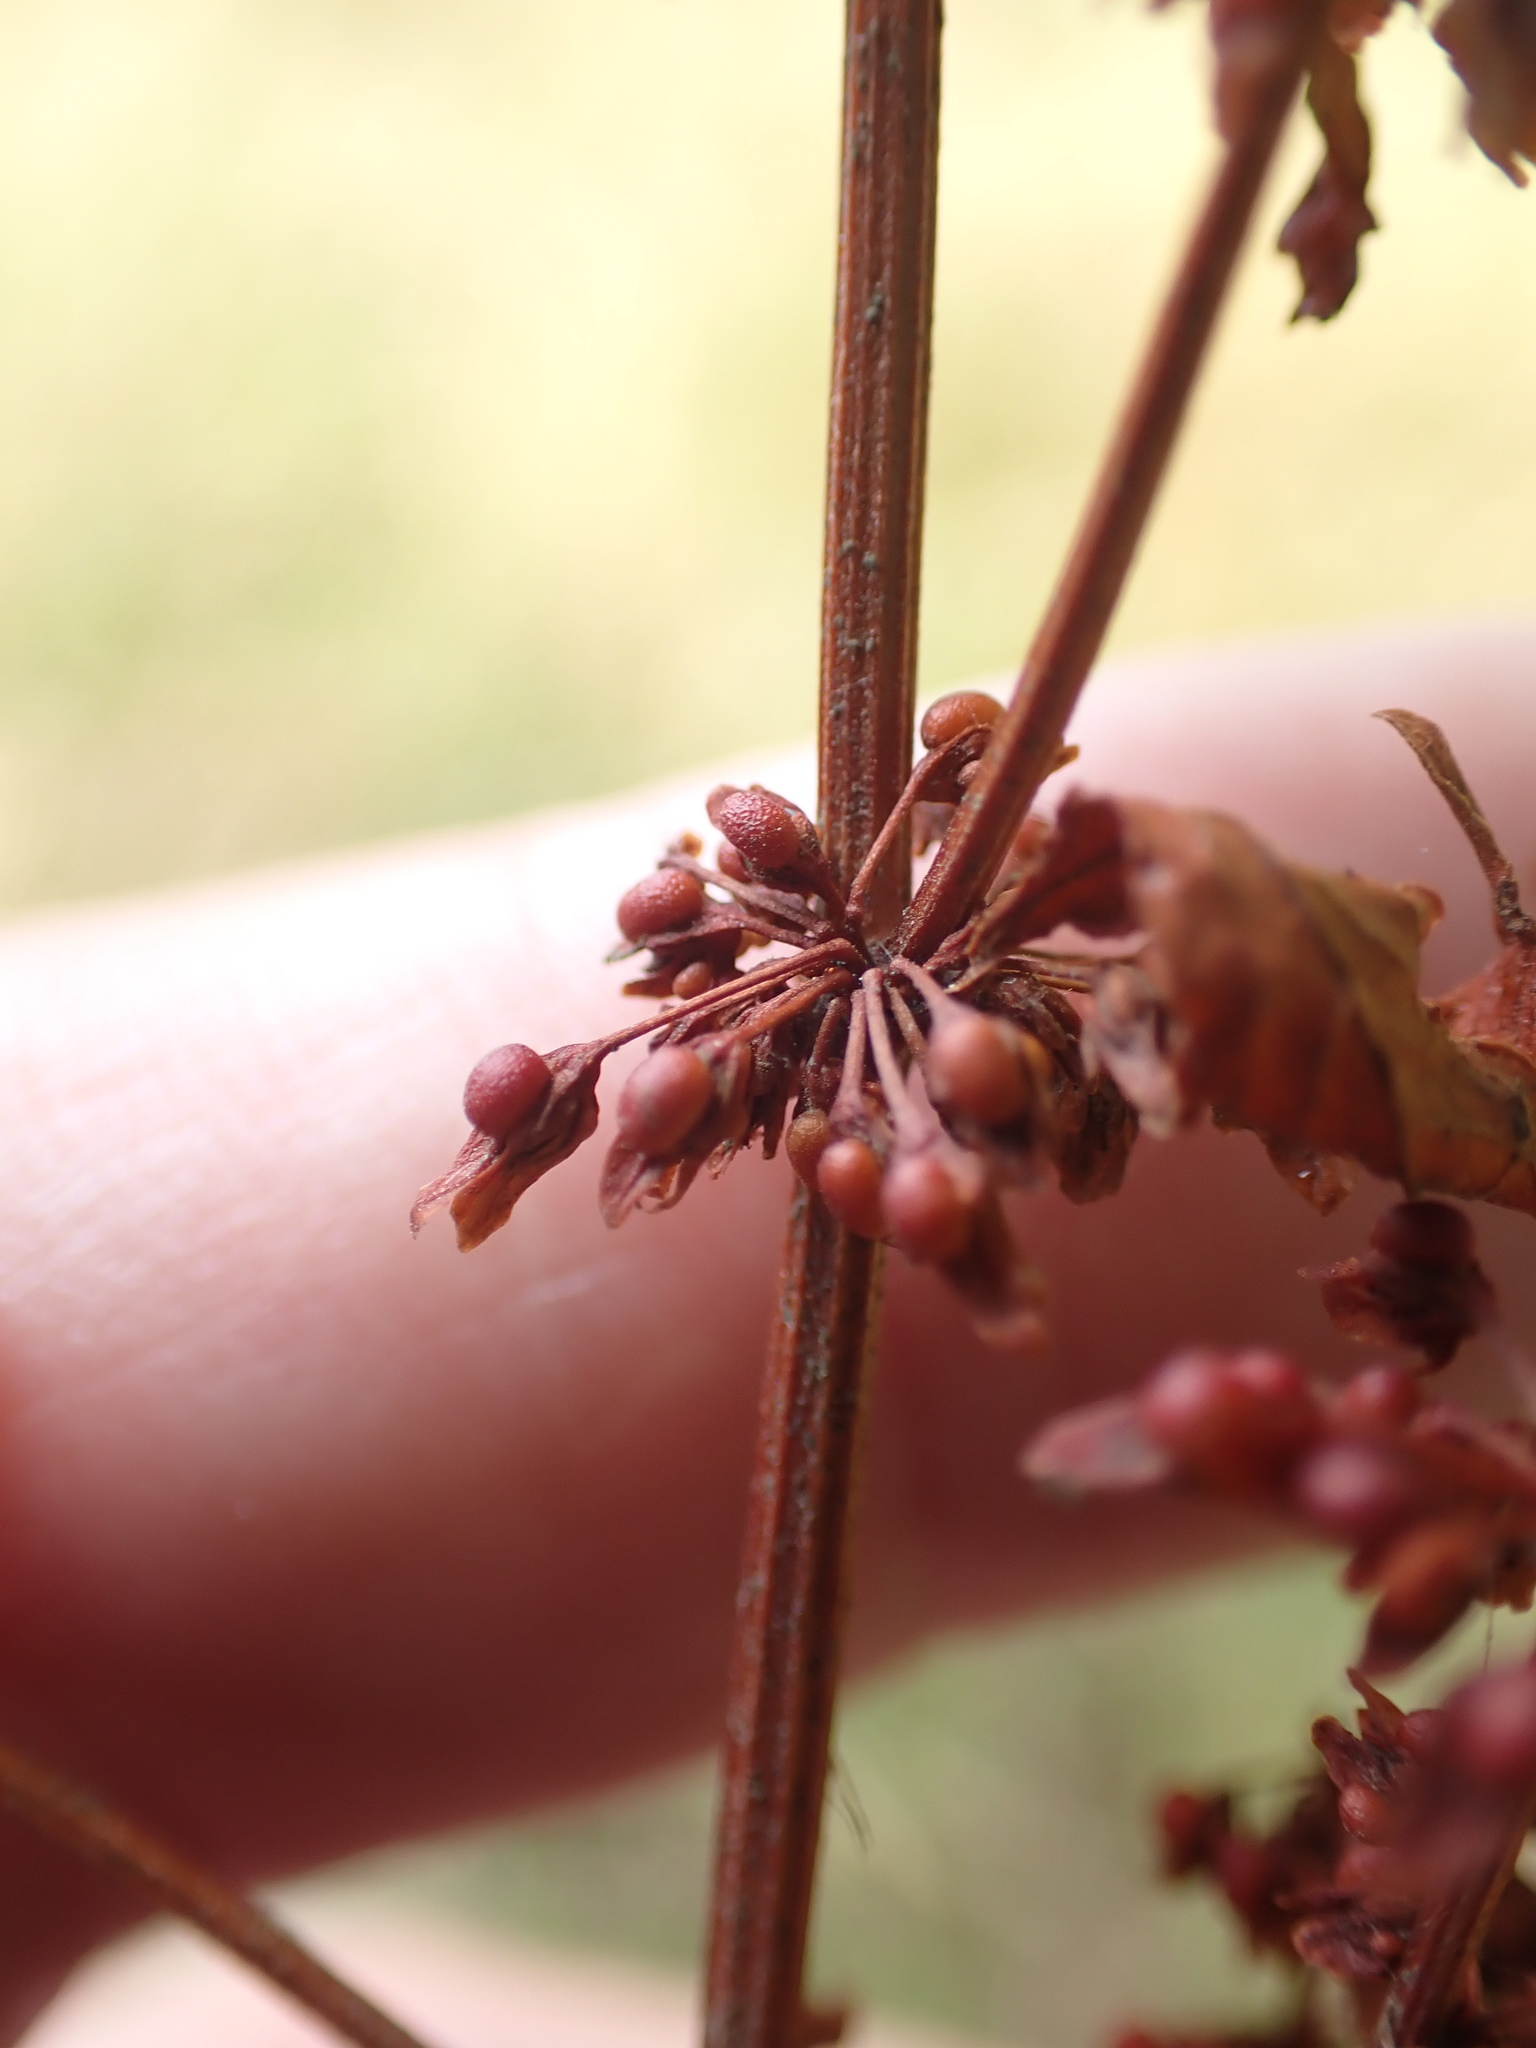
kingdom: Plantae
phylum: Tracheophyta
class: Magnoliopsida
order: Caryophyllales
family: Polygonaceae
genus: Rumex
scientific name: Rumex sanguineus
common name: Wood dock
